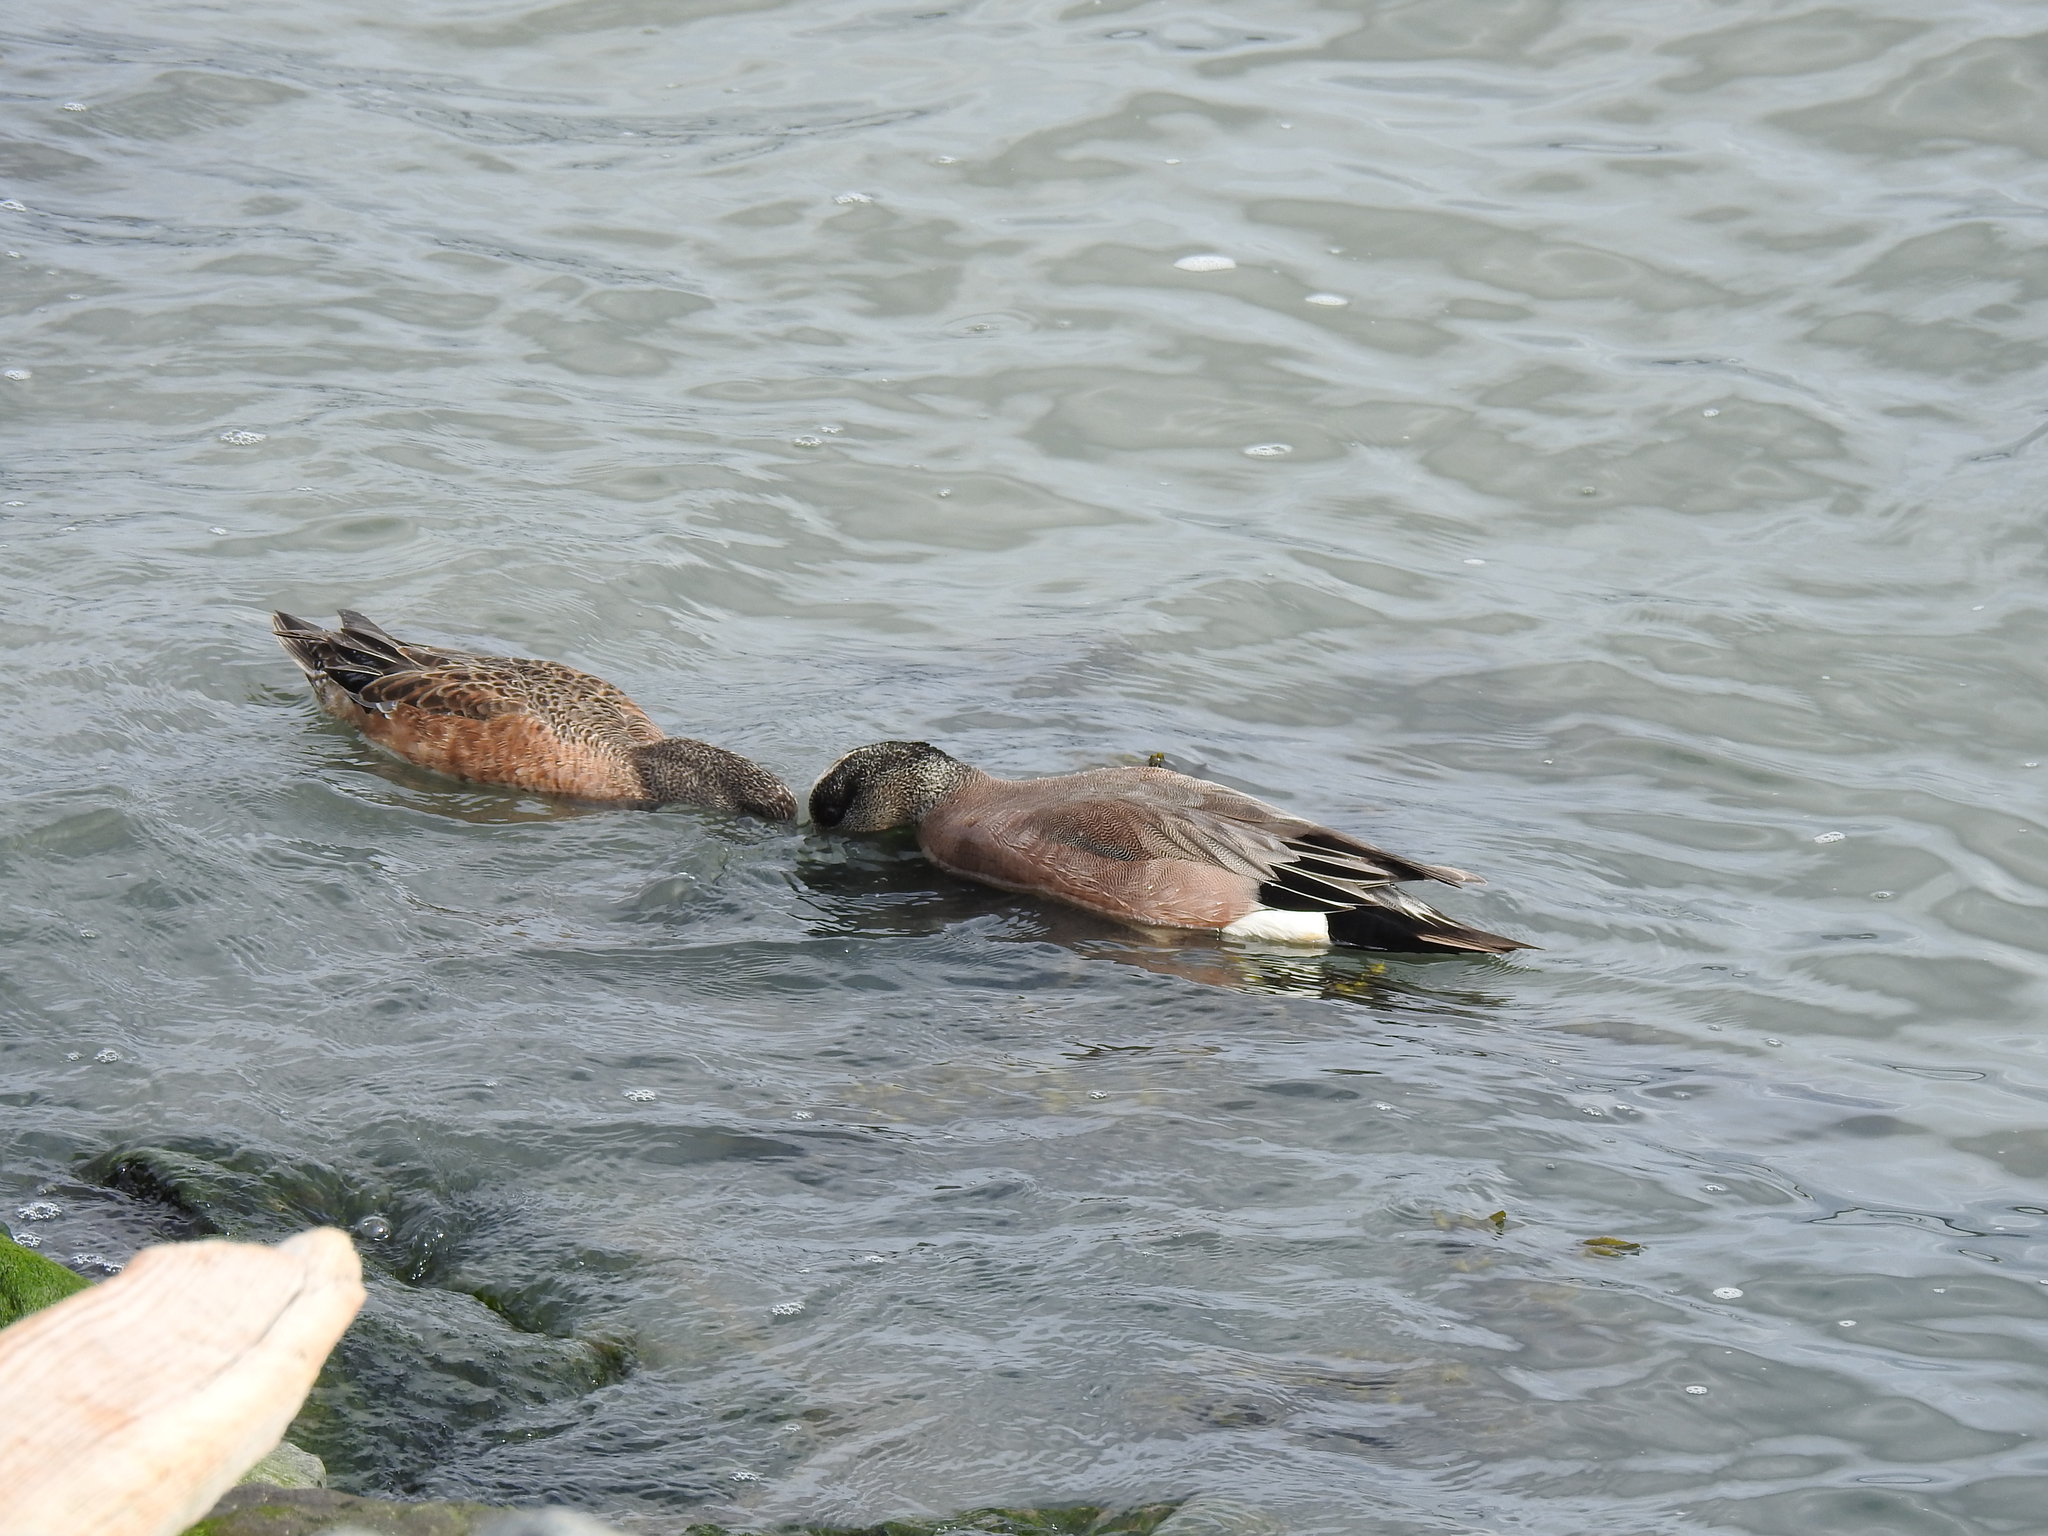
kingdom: Animalia
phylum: Chordata
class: Aves
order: Anseriformes
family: Anatidae
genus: Mareca
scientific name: Mareca americana
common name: American wigeon
